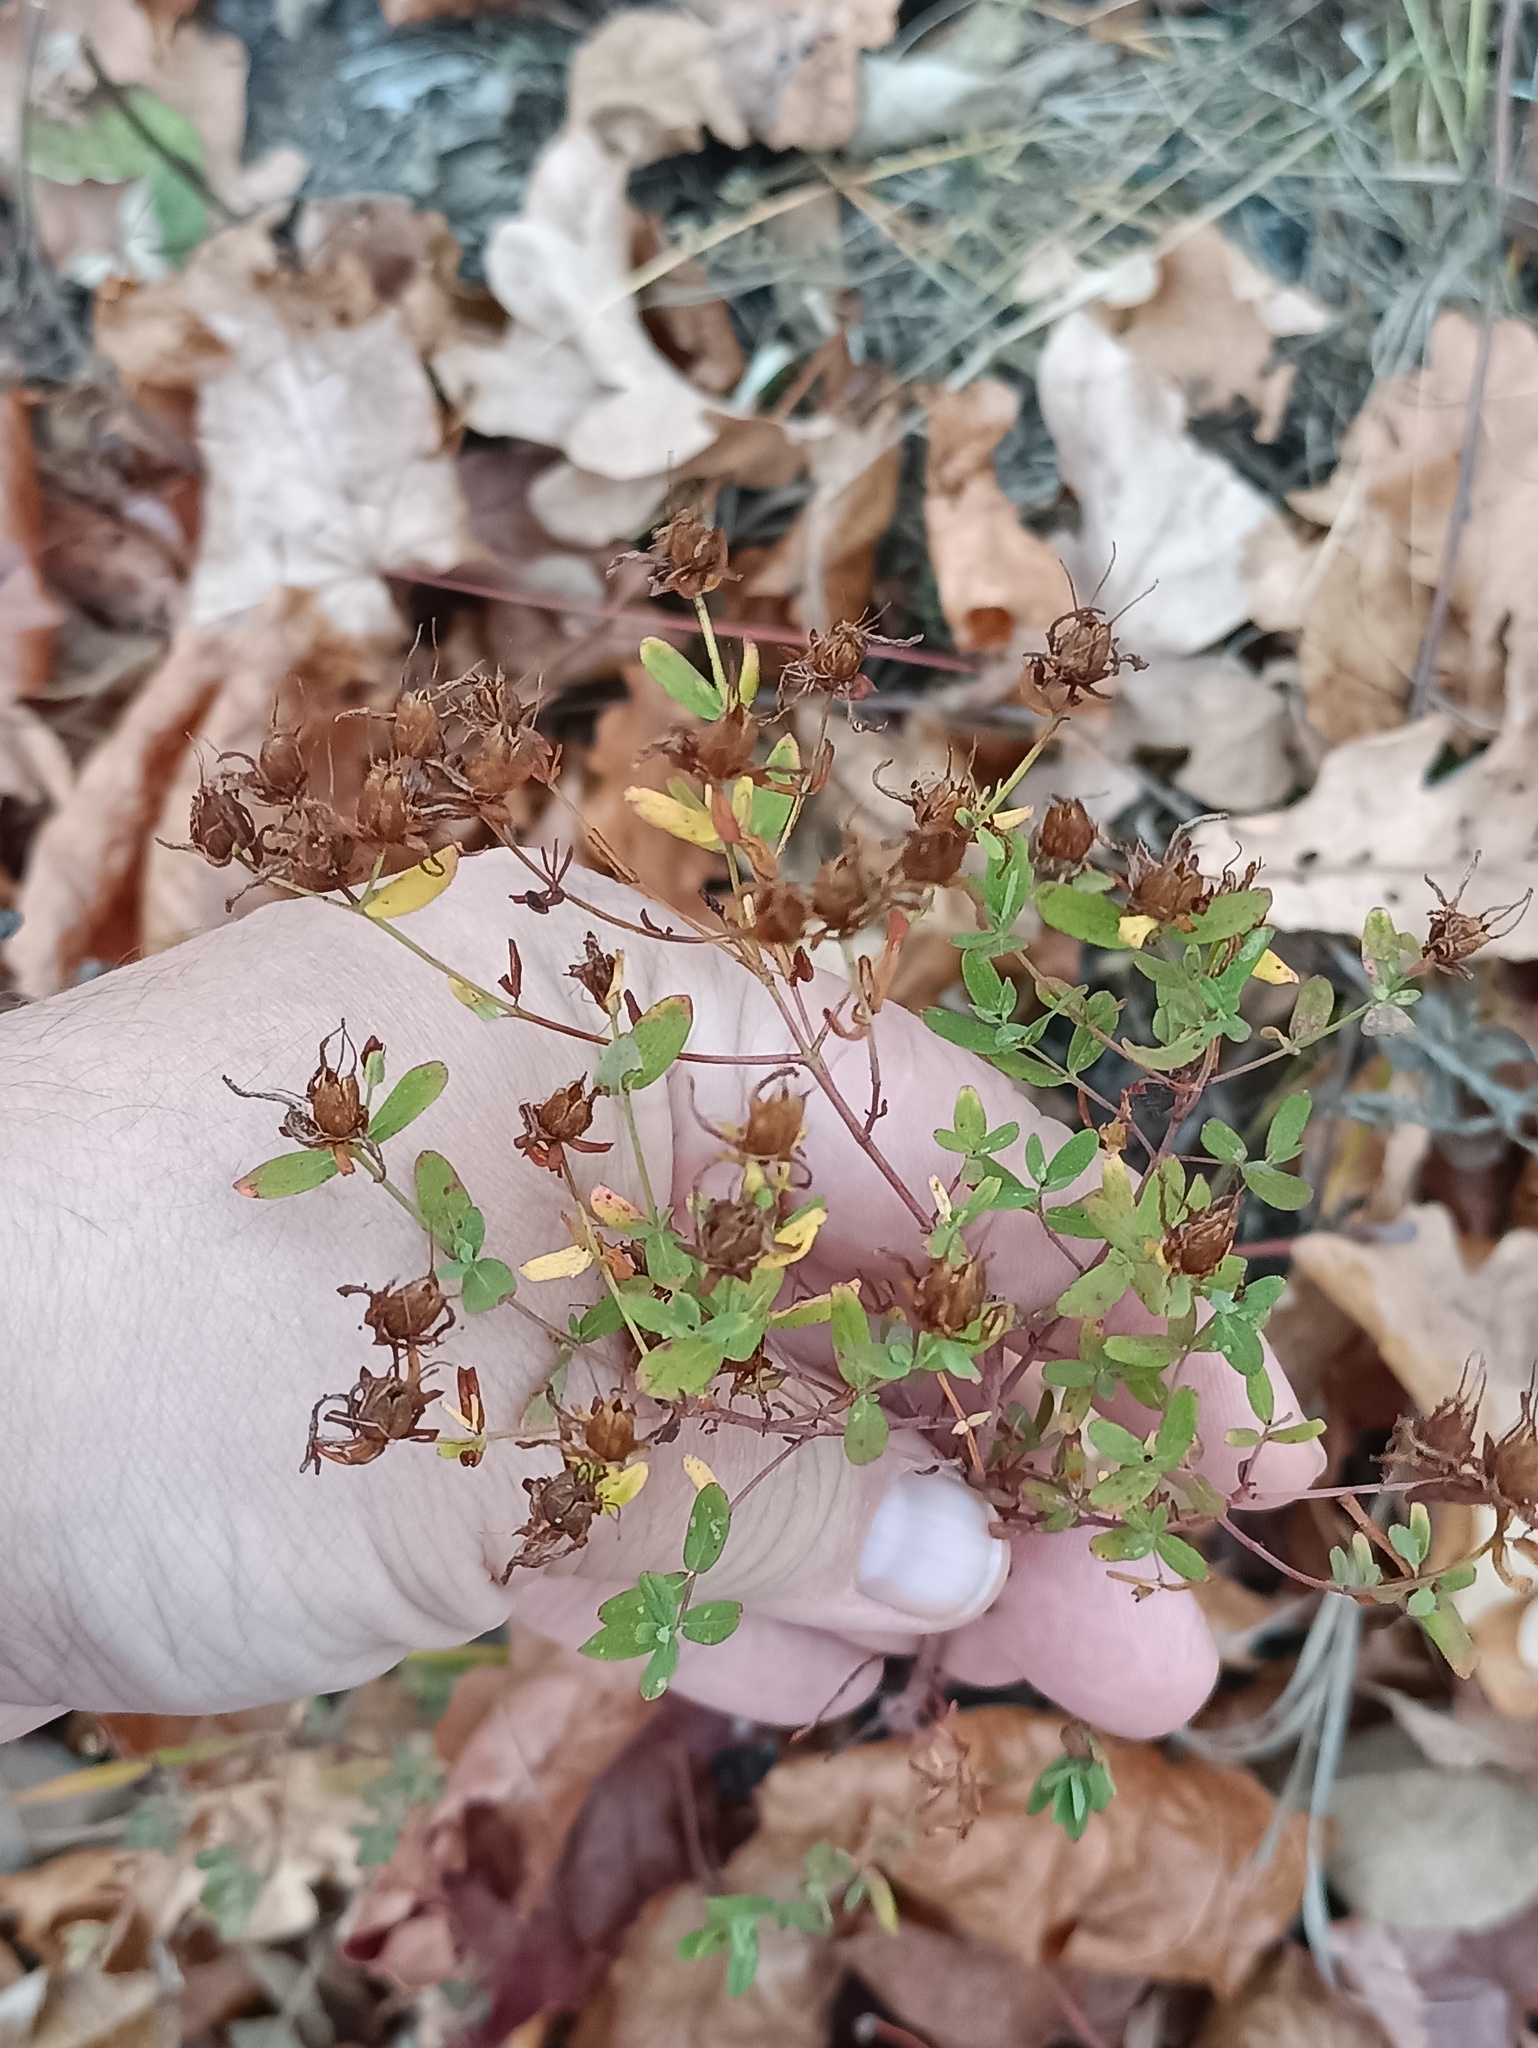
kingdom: Plantae
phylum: Tracheophyta
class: Magnoliopsida
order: Malpighiales
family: Hypericaceae
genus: Hypericum
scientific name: Hypericum perforatum
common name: Common st. johnswort
